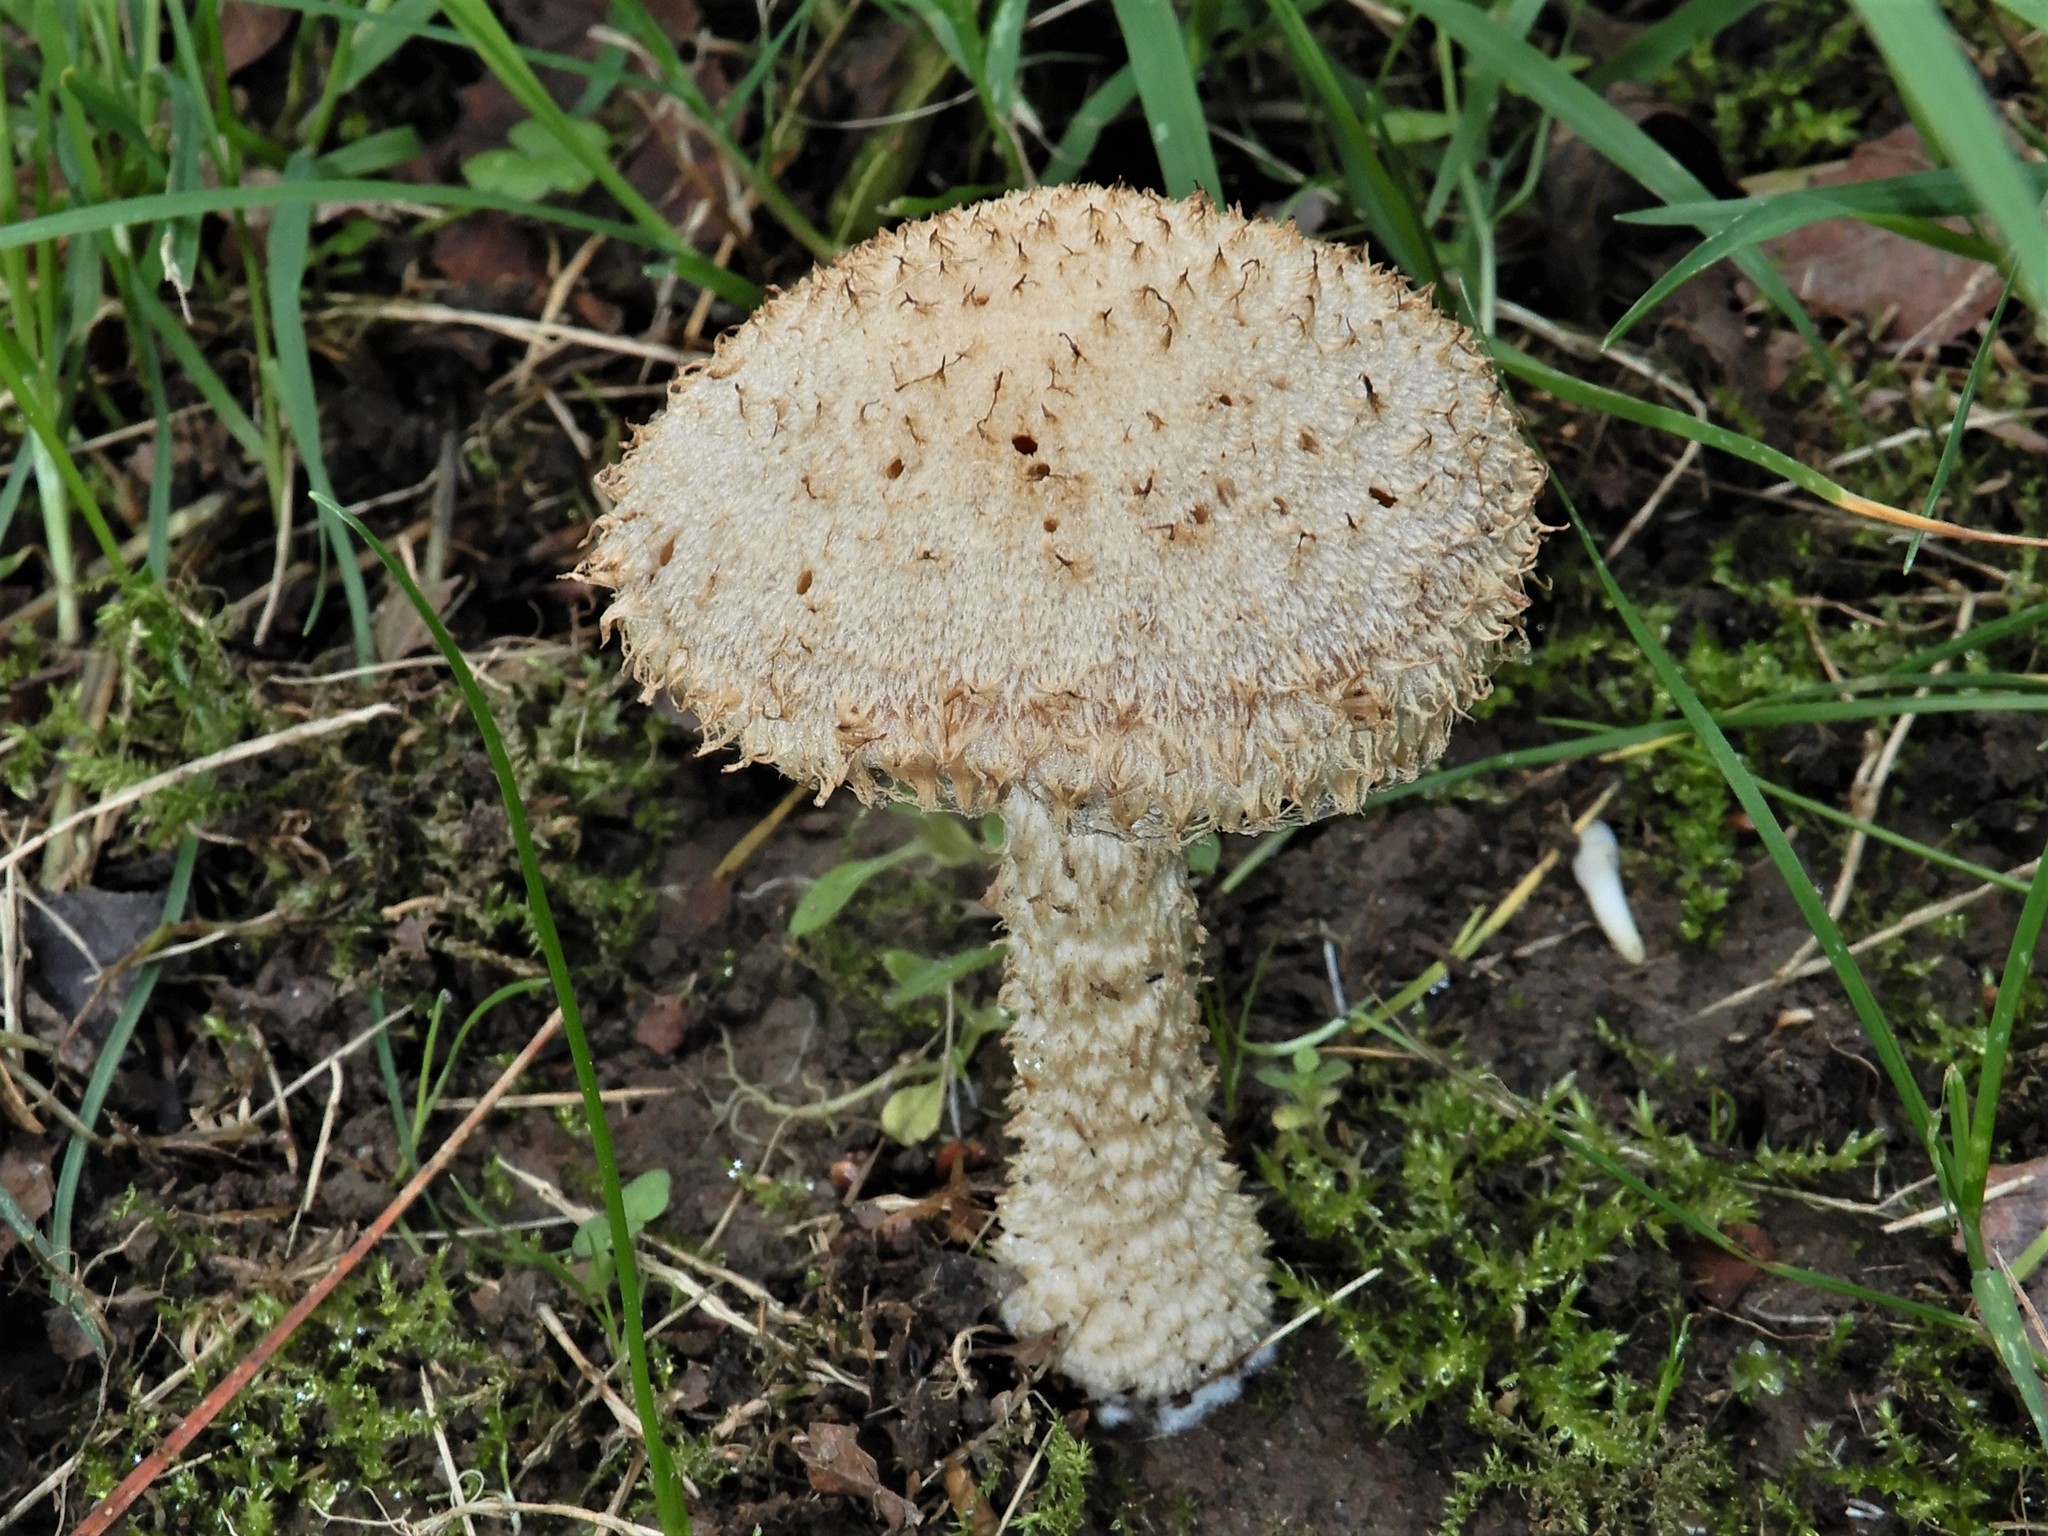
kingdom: Fungi
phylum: Basidiomycota
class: Agaricomycetes
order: Agaricales
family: Psathyrellaceae
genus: Psathyrella
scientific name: Psathyrella asperospora
